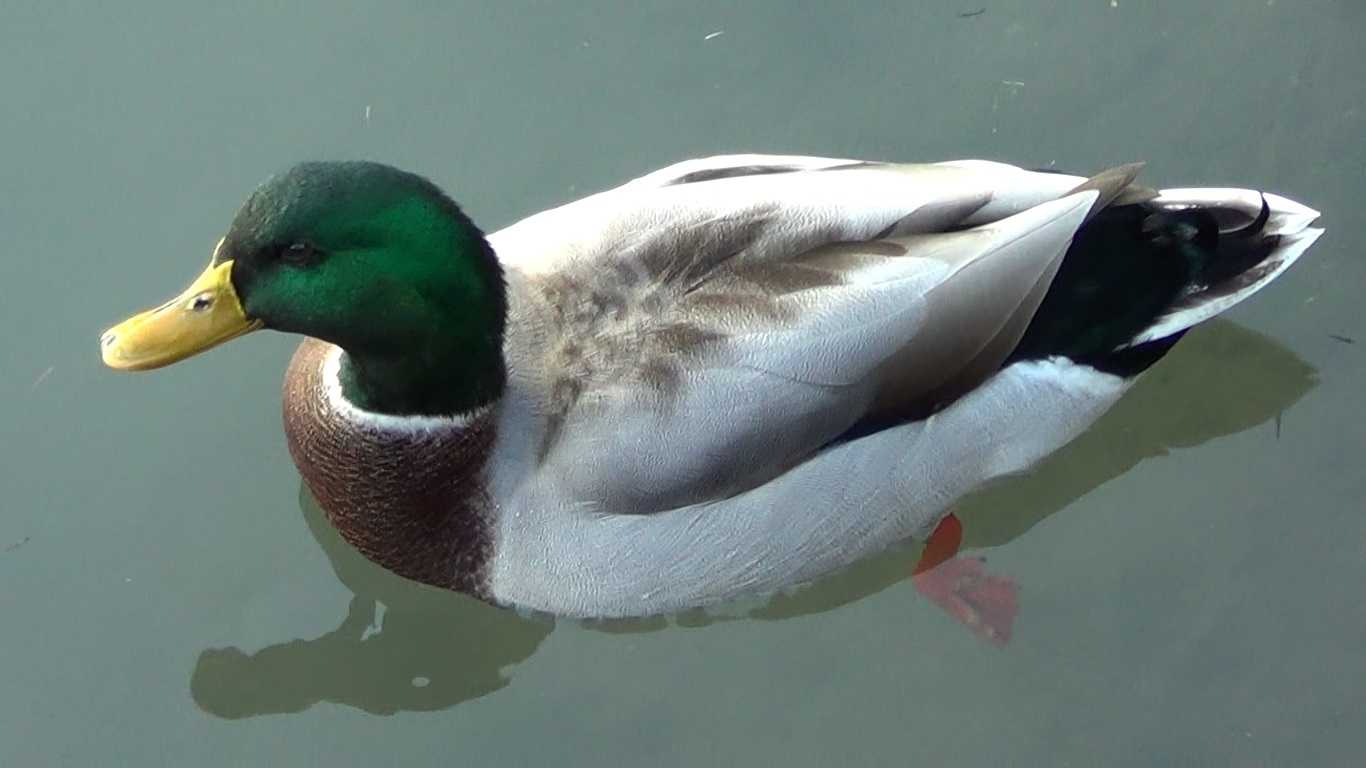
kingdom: Animalia
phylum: Chordata
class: Aves
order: Anseriformes
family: Anatidae
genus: Anas
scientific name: Anas platyrhynchos
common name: Mallard
